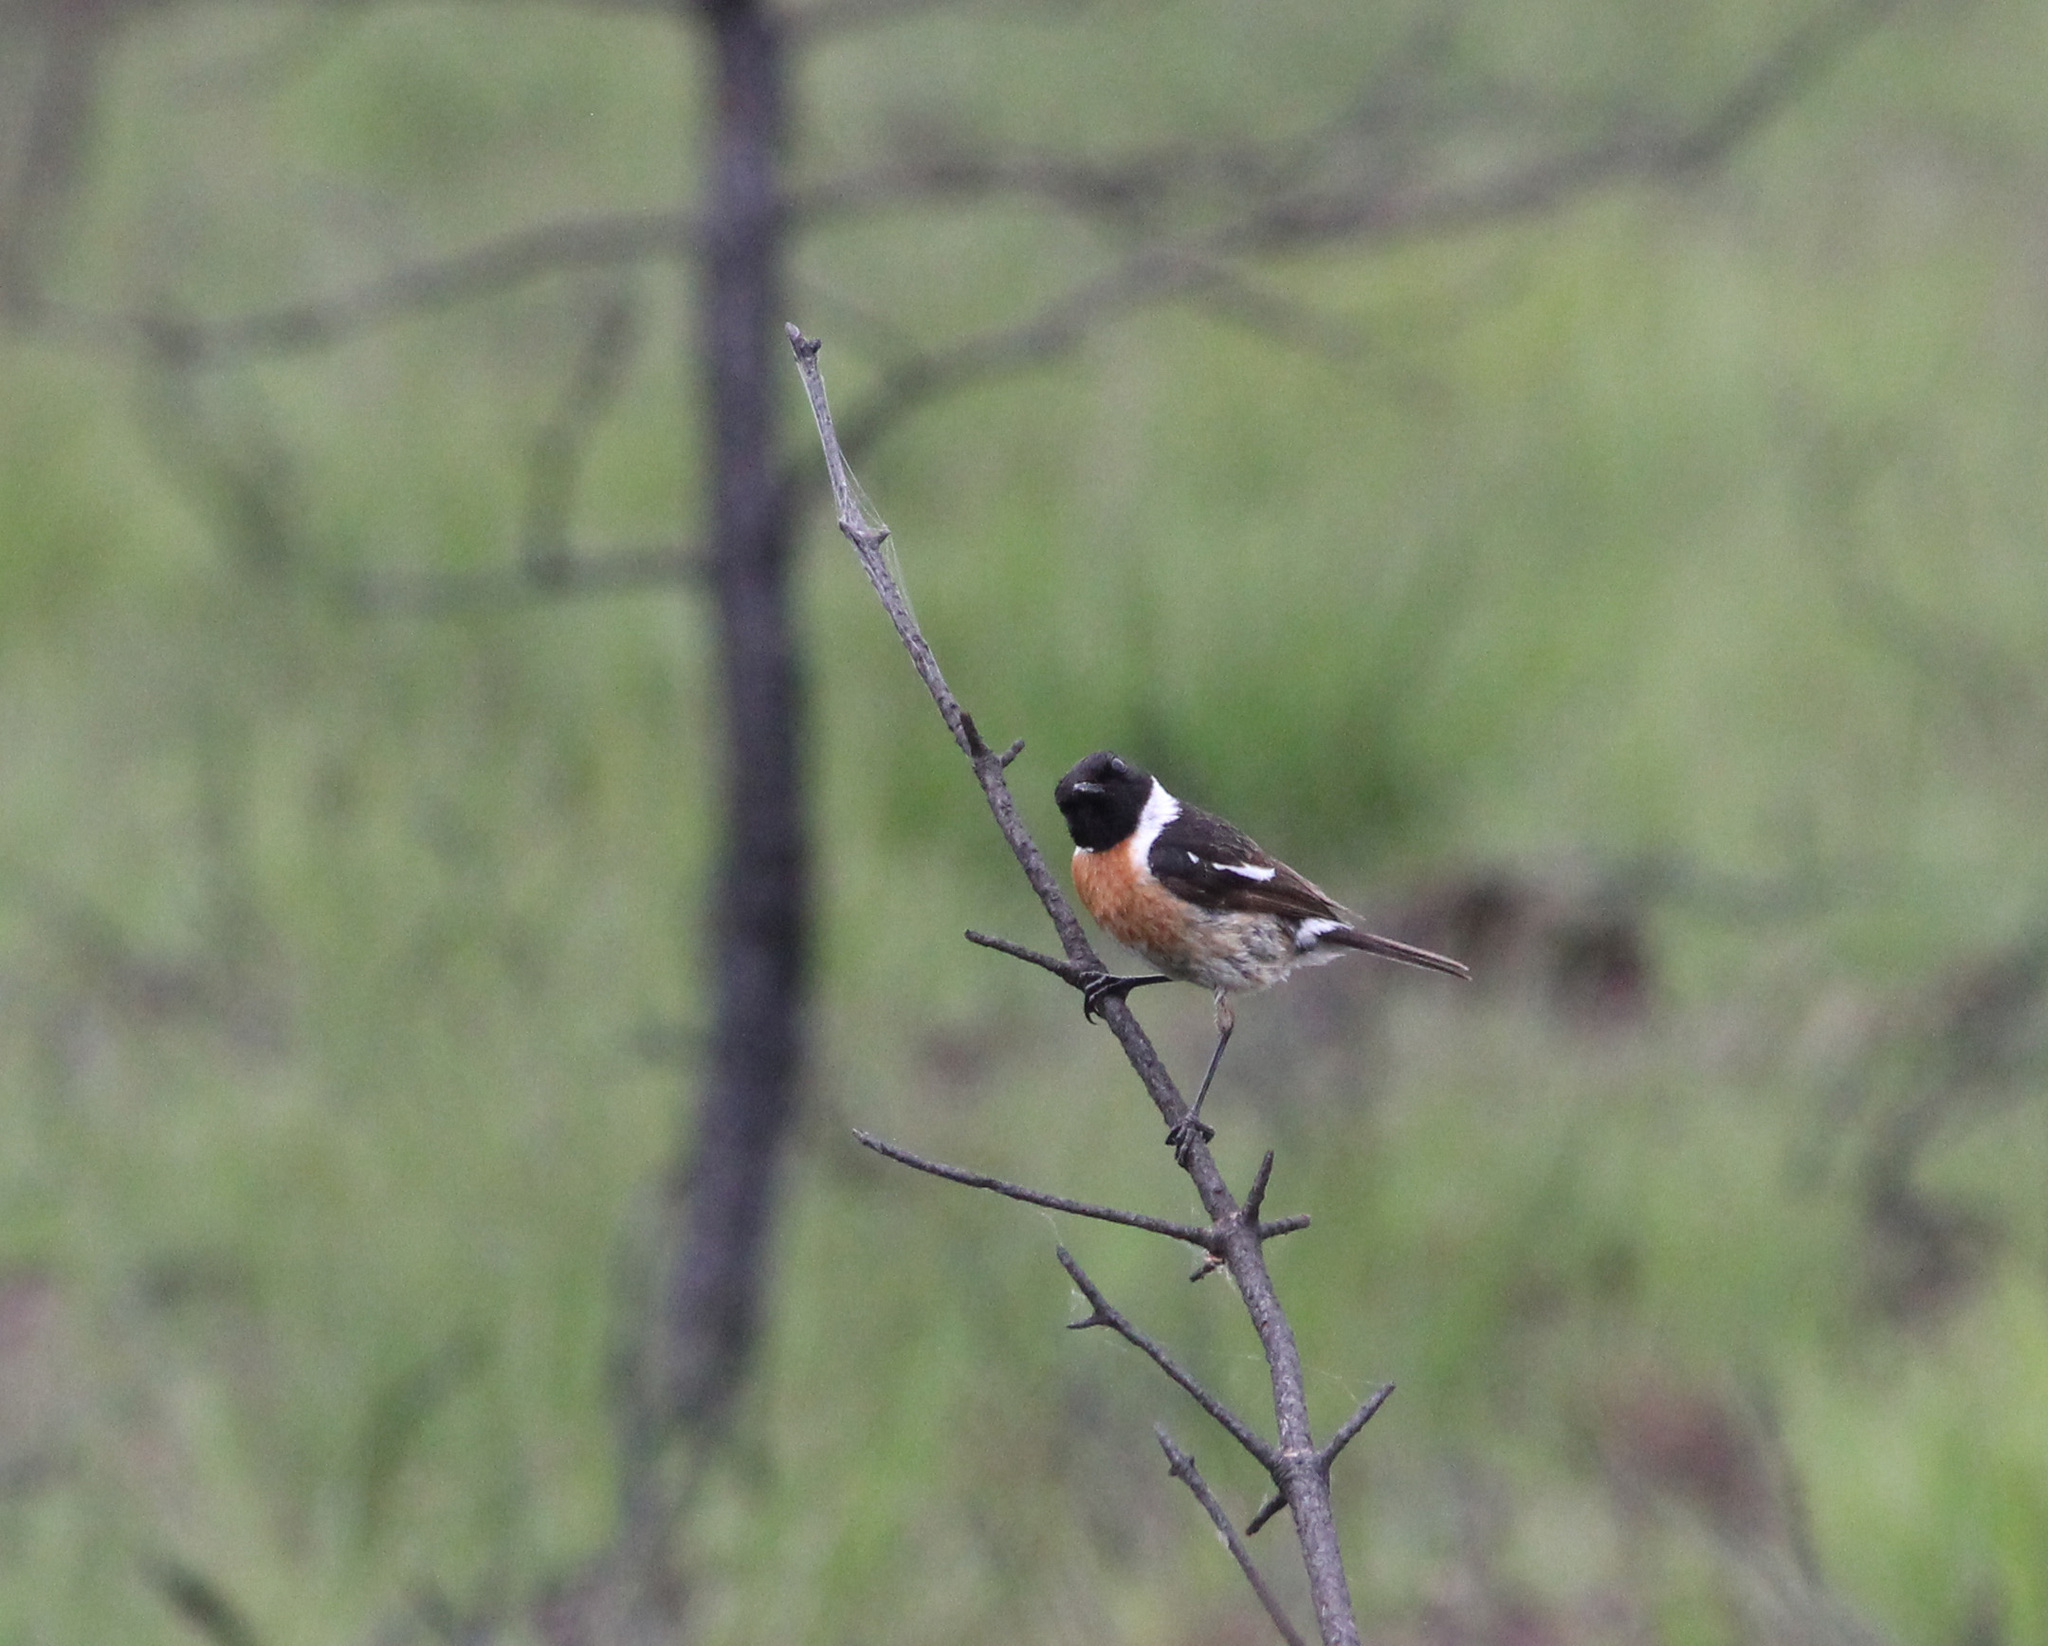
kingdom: Animalia
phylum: Chordata
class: Aves
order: Passeriformes
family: Muscicapidae
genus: Saxicola
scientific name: Saxicola rubicola
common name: European stonechat
